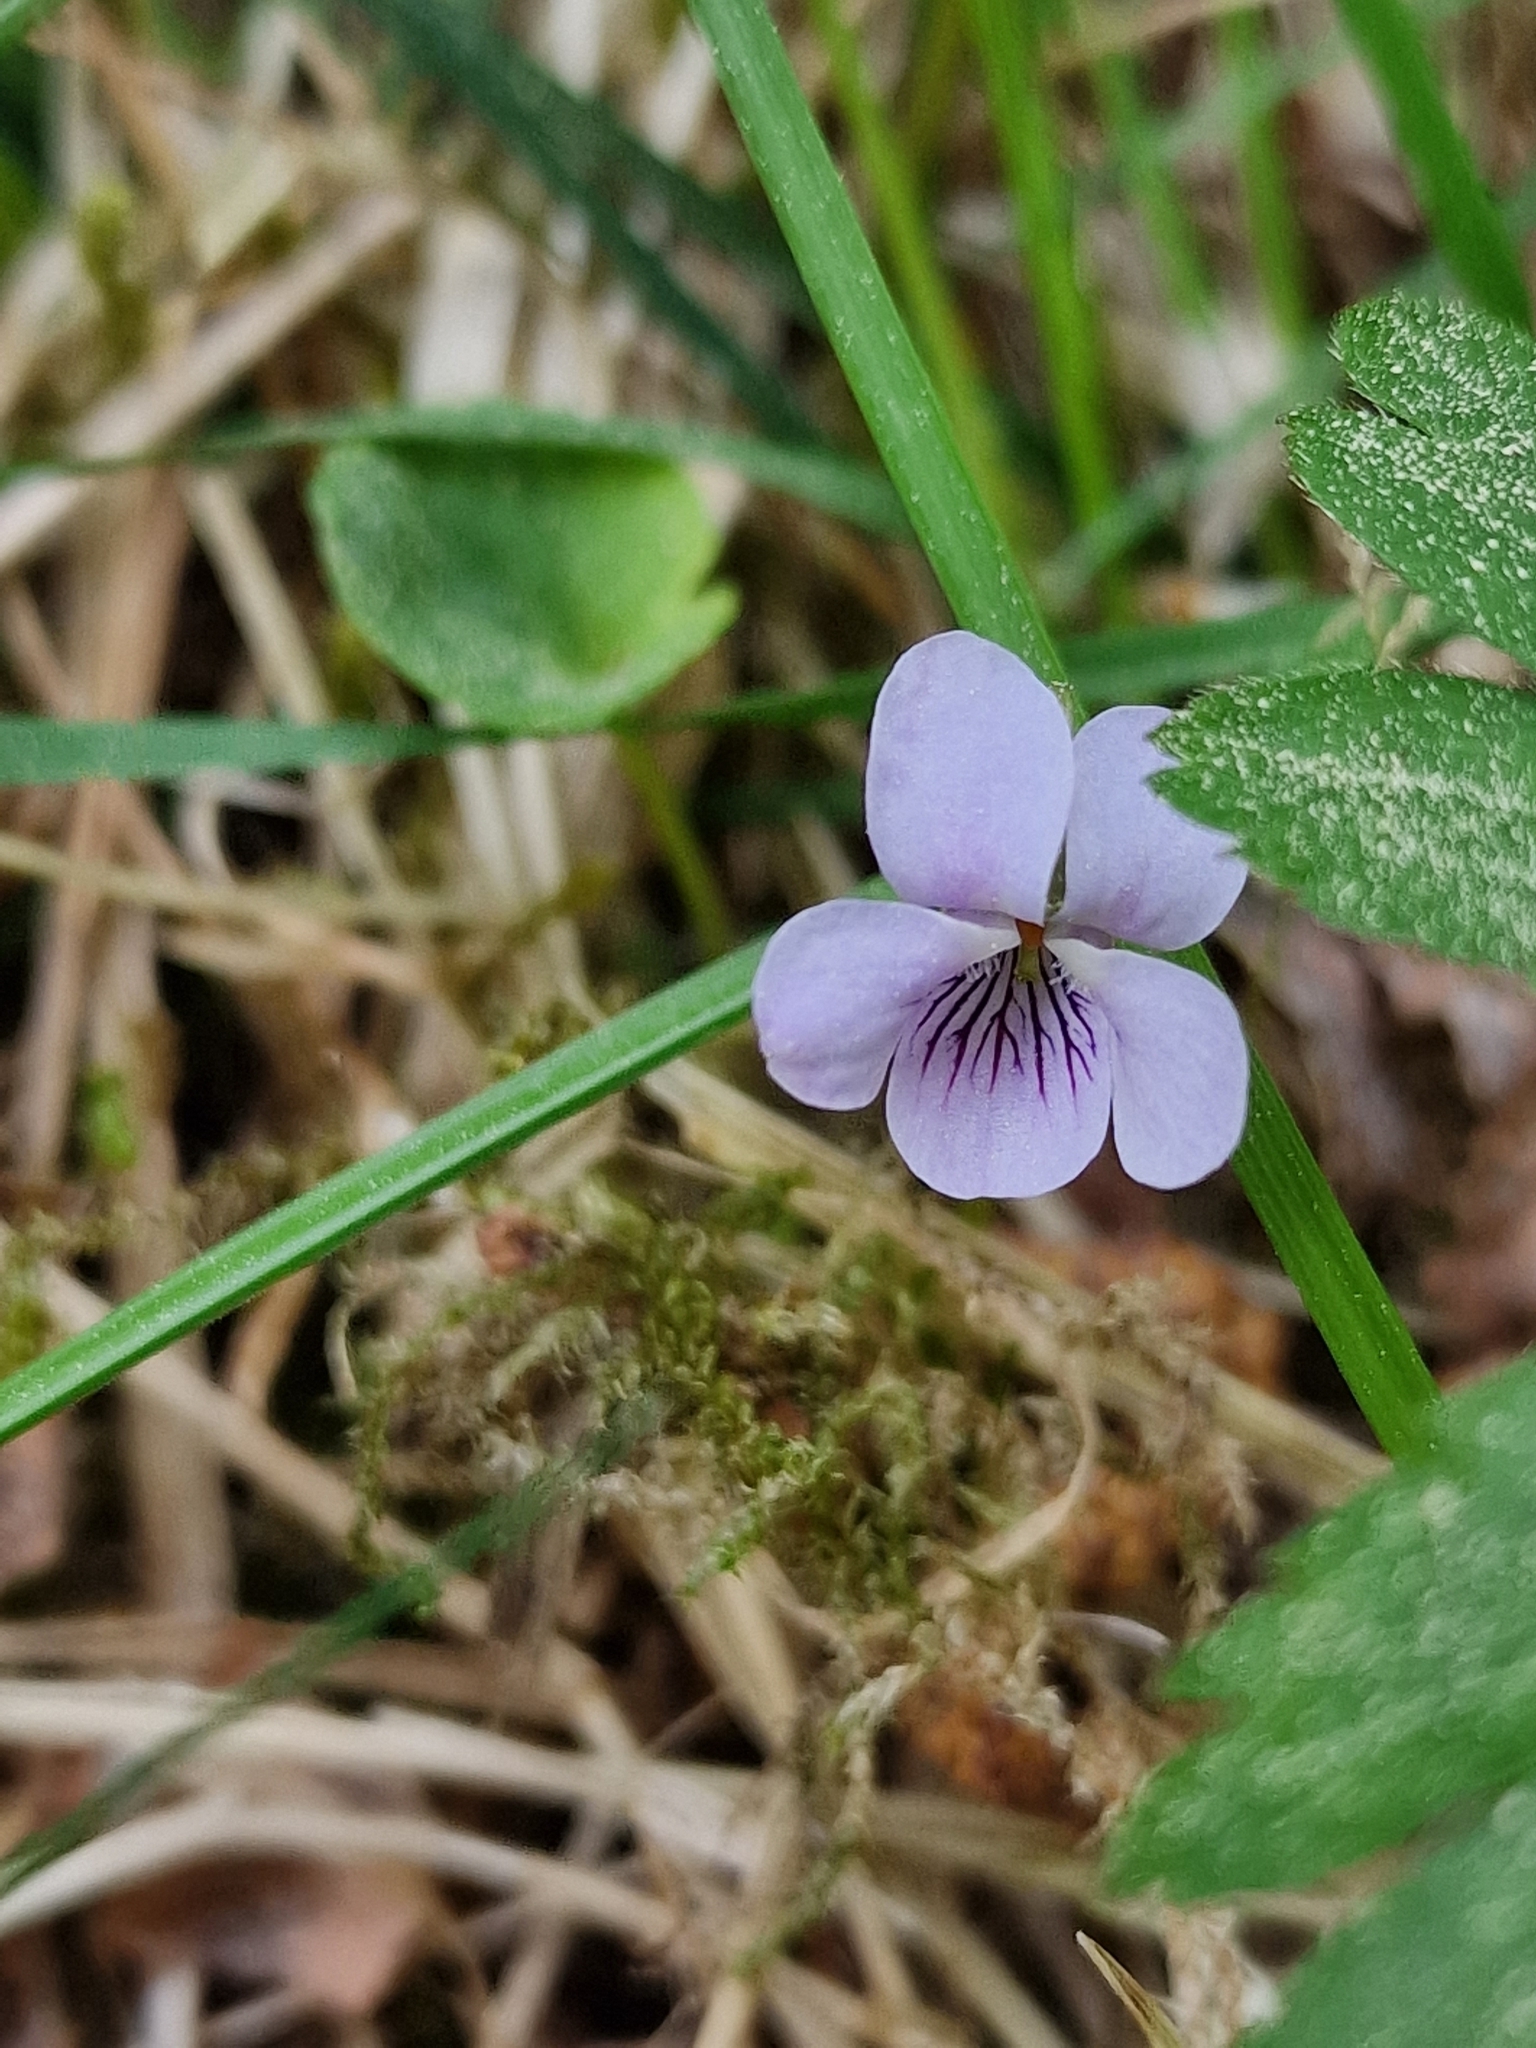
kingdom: Plantae
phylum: Tracheophyta
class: Magnoliopsida
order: Malpighiales
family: Violaceae
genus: Viola
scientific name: Viola palustris
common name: Marsh violet
